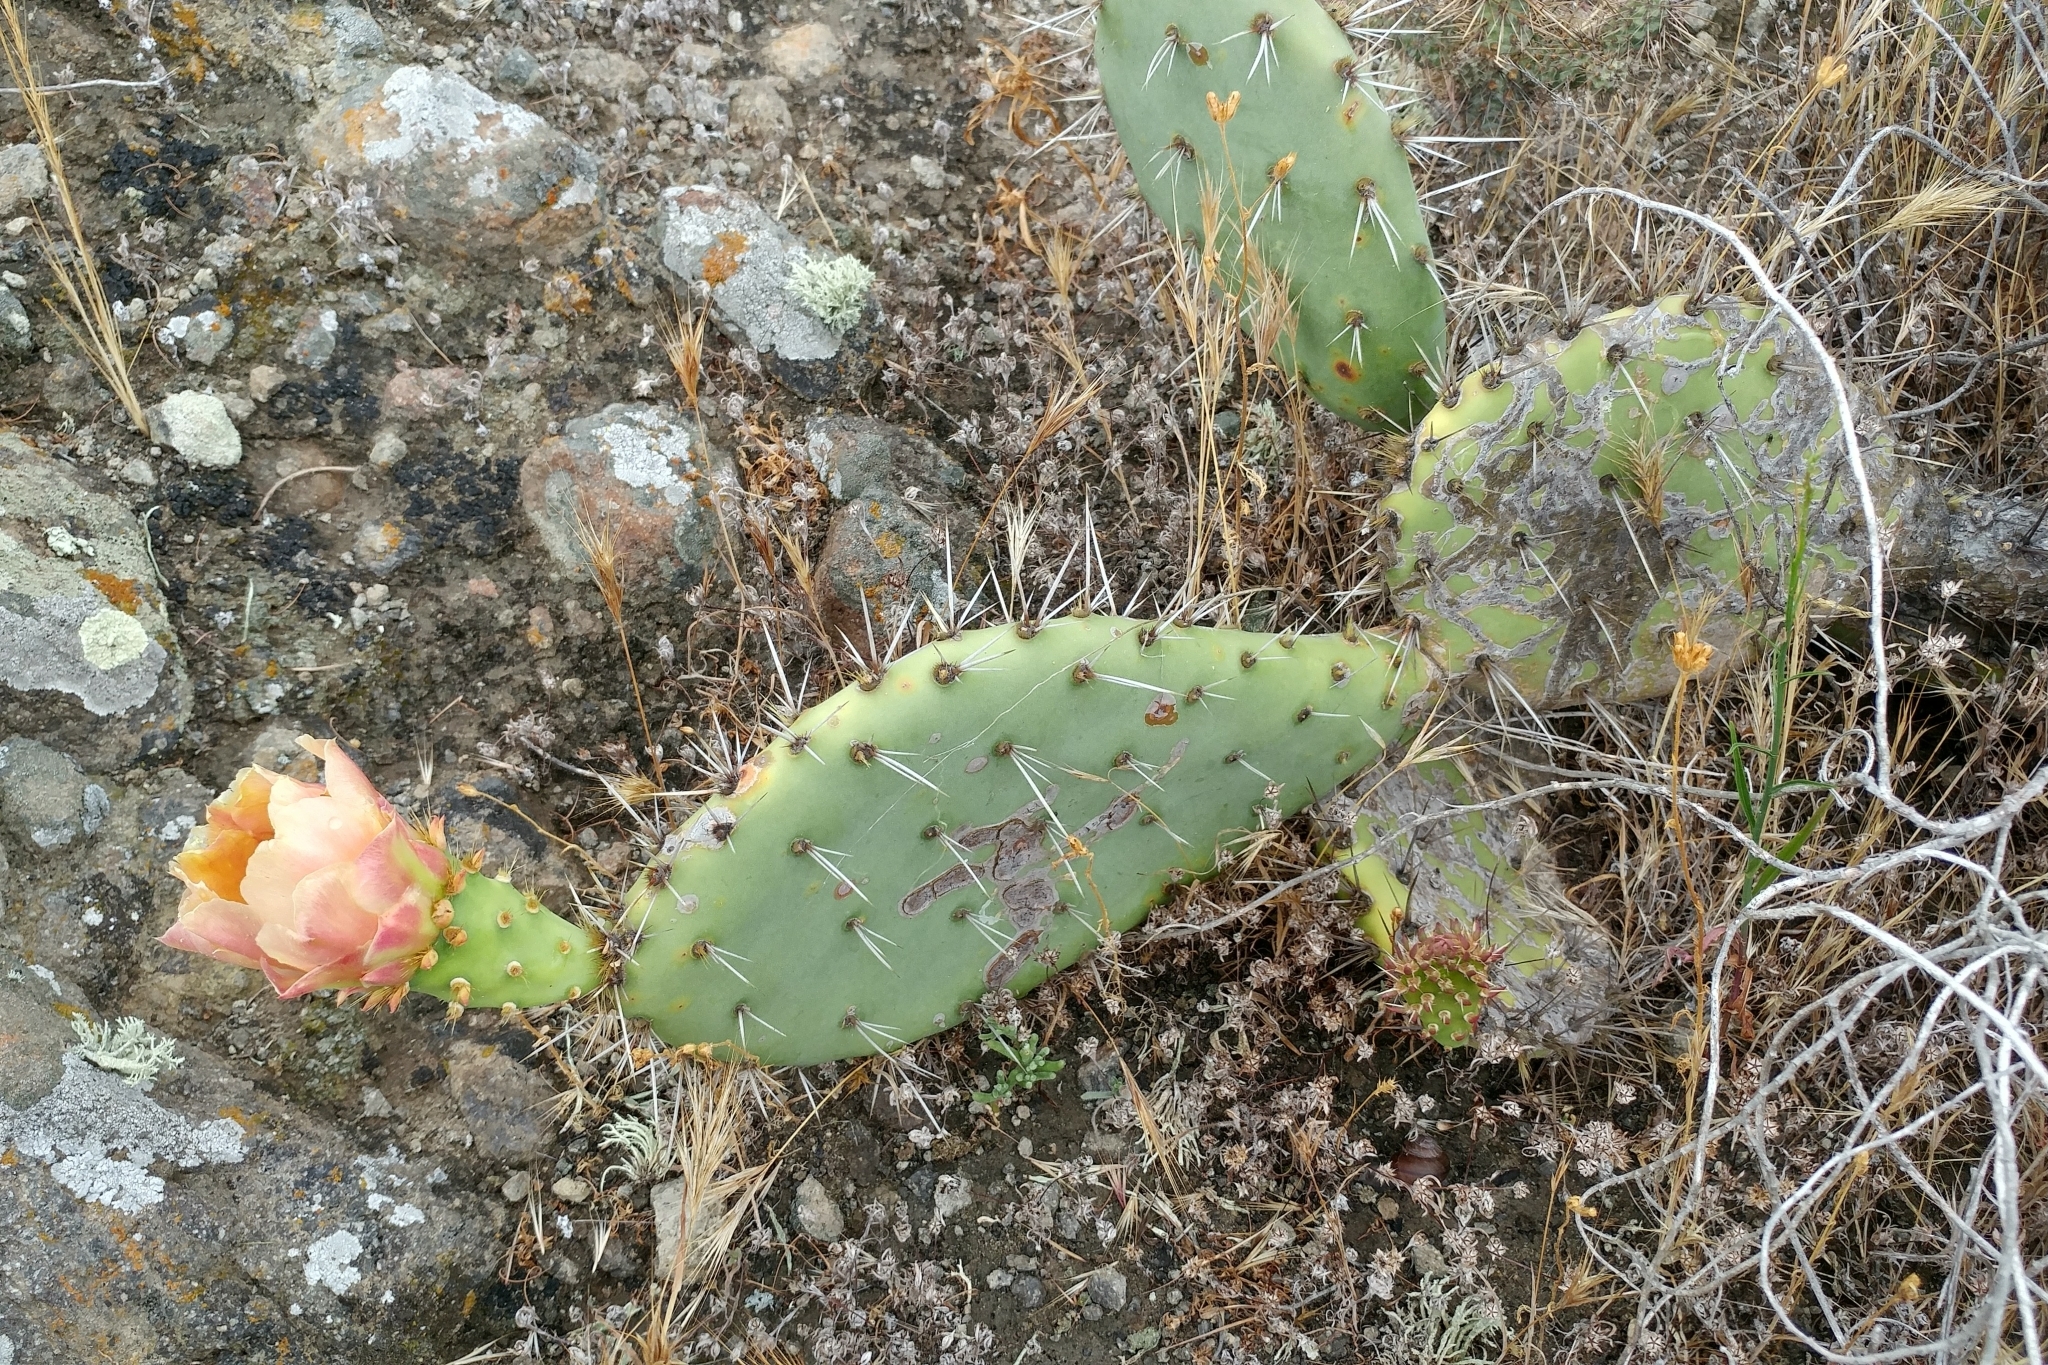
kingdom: Plantae
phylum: Tracheophyta
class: Magnoliopsida
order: Caryophyllales
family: Cactaceae
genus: Opuntia
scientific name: Opuntia littoralis
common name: Coastal prickly-pear
